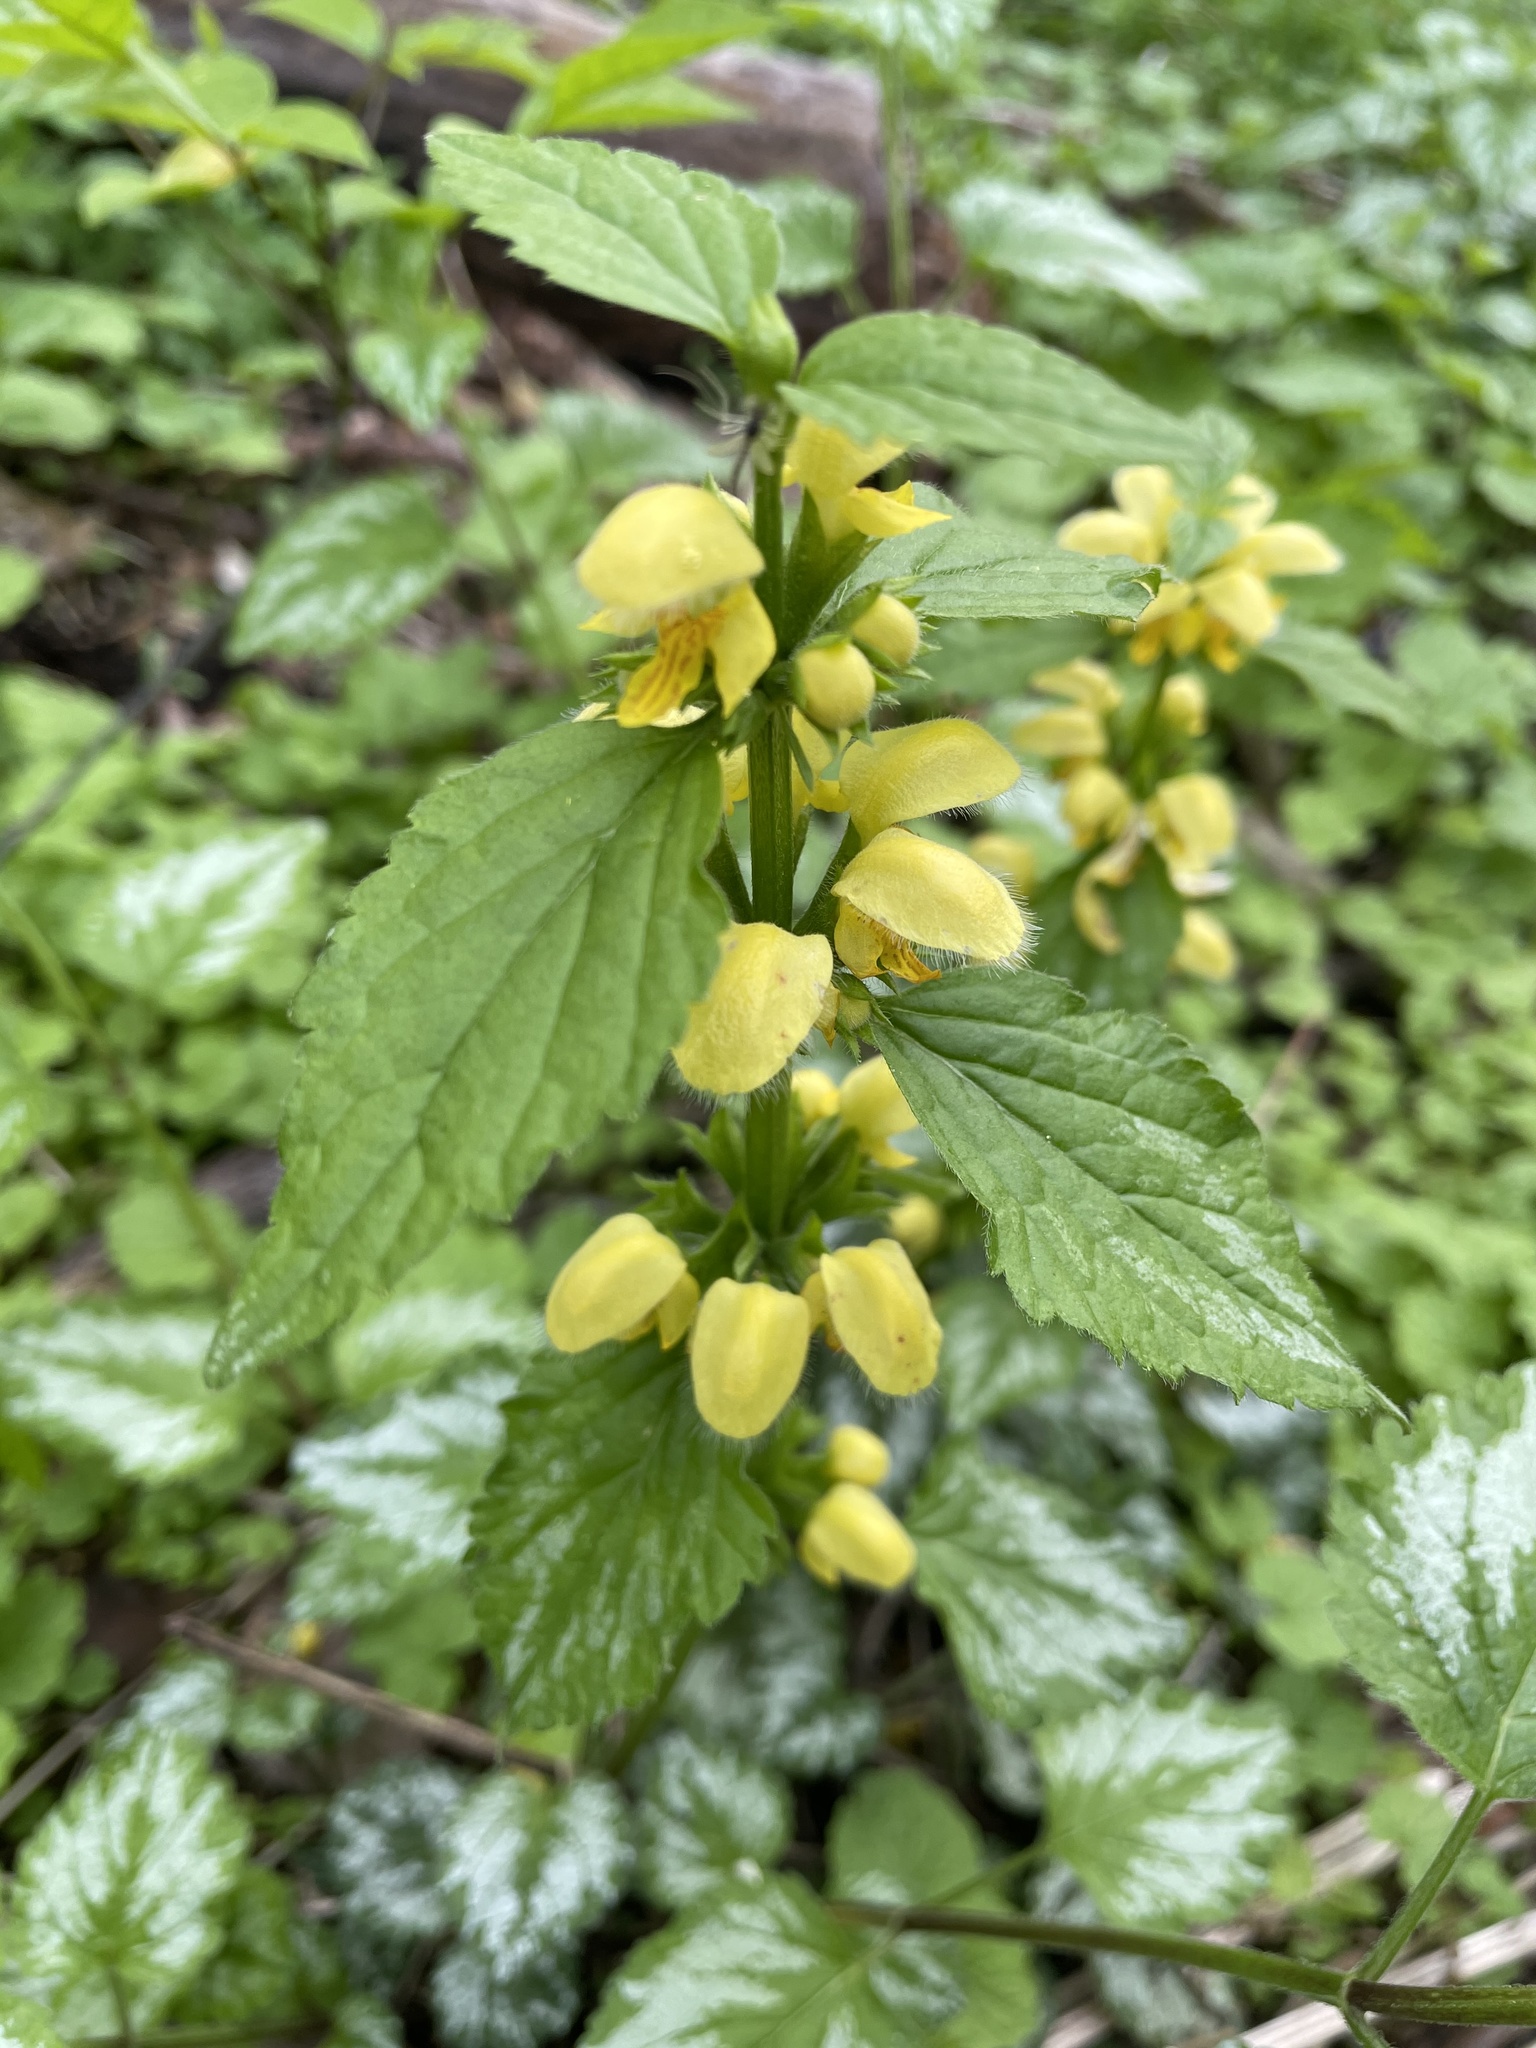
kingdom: Plantae
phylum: Tracheophyta
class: Magnoliopsida
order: Lamiales
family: Lamiaceae
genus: Lamium
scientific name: Lamium galeobdolon
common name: Yellow archangel
